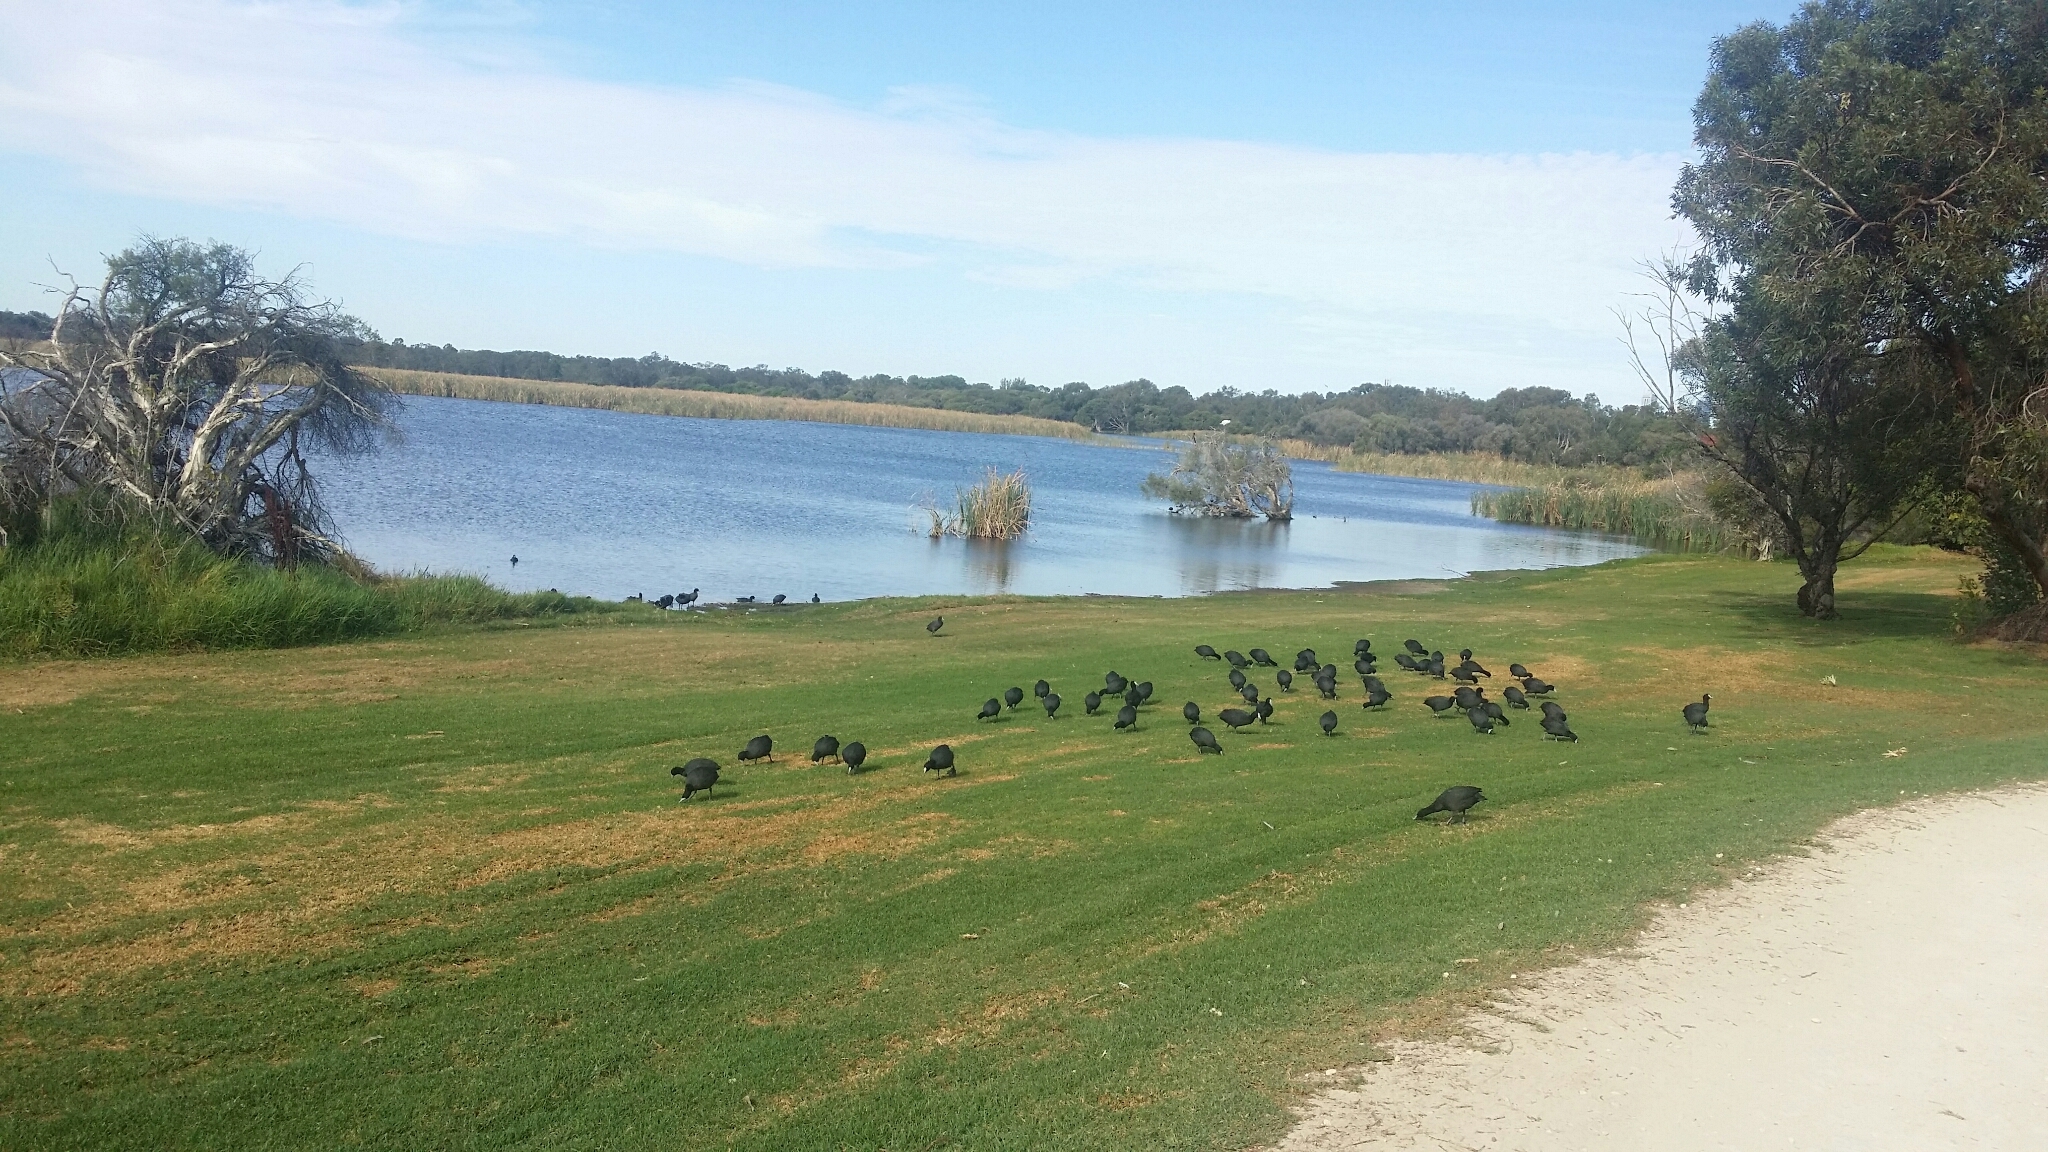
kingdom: Animalia
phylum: Chordata
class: Aves
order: Gruiformes
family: Rallidae
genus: Fulica
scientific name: Fulica atra
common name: Eurasian coot
